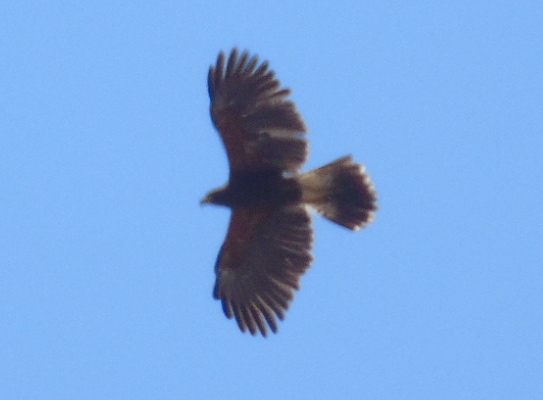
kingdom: Animalia
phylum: Chordata
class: Aves
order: Accipitriformes
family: Accipitridae
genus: Parabuteo
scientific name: Parabuteo unicinctus
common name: Harris's hawk
